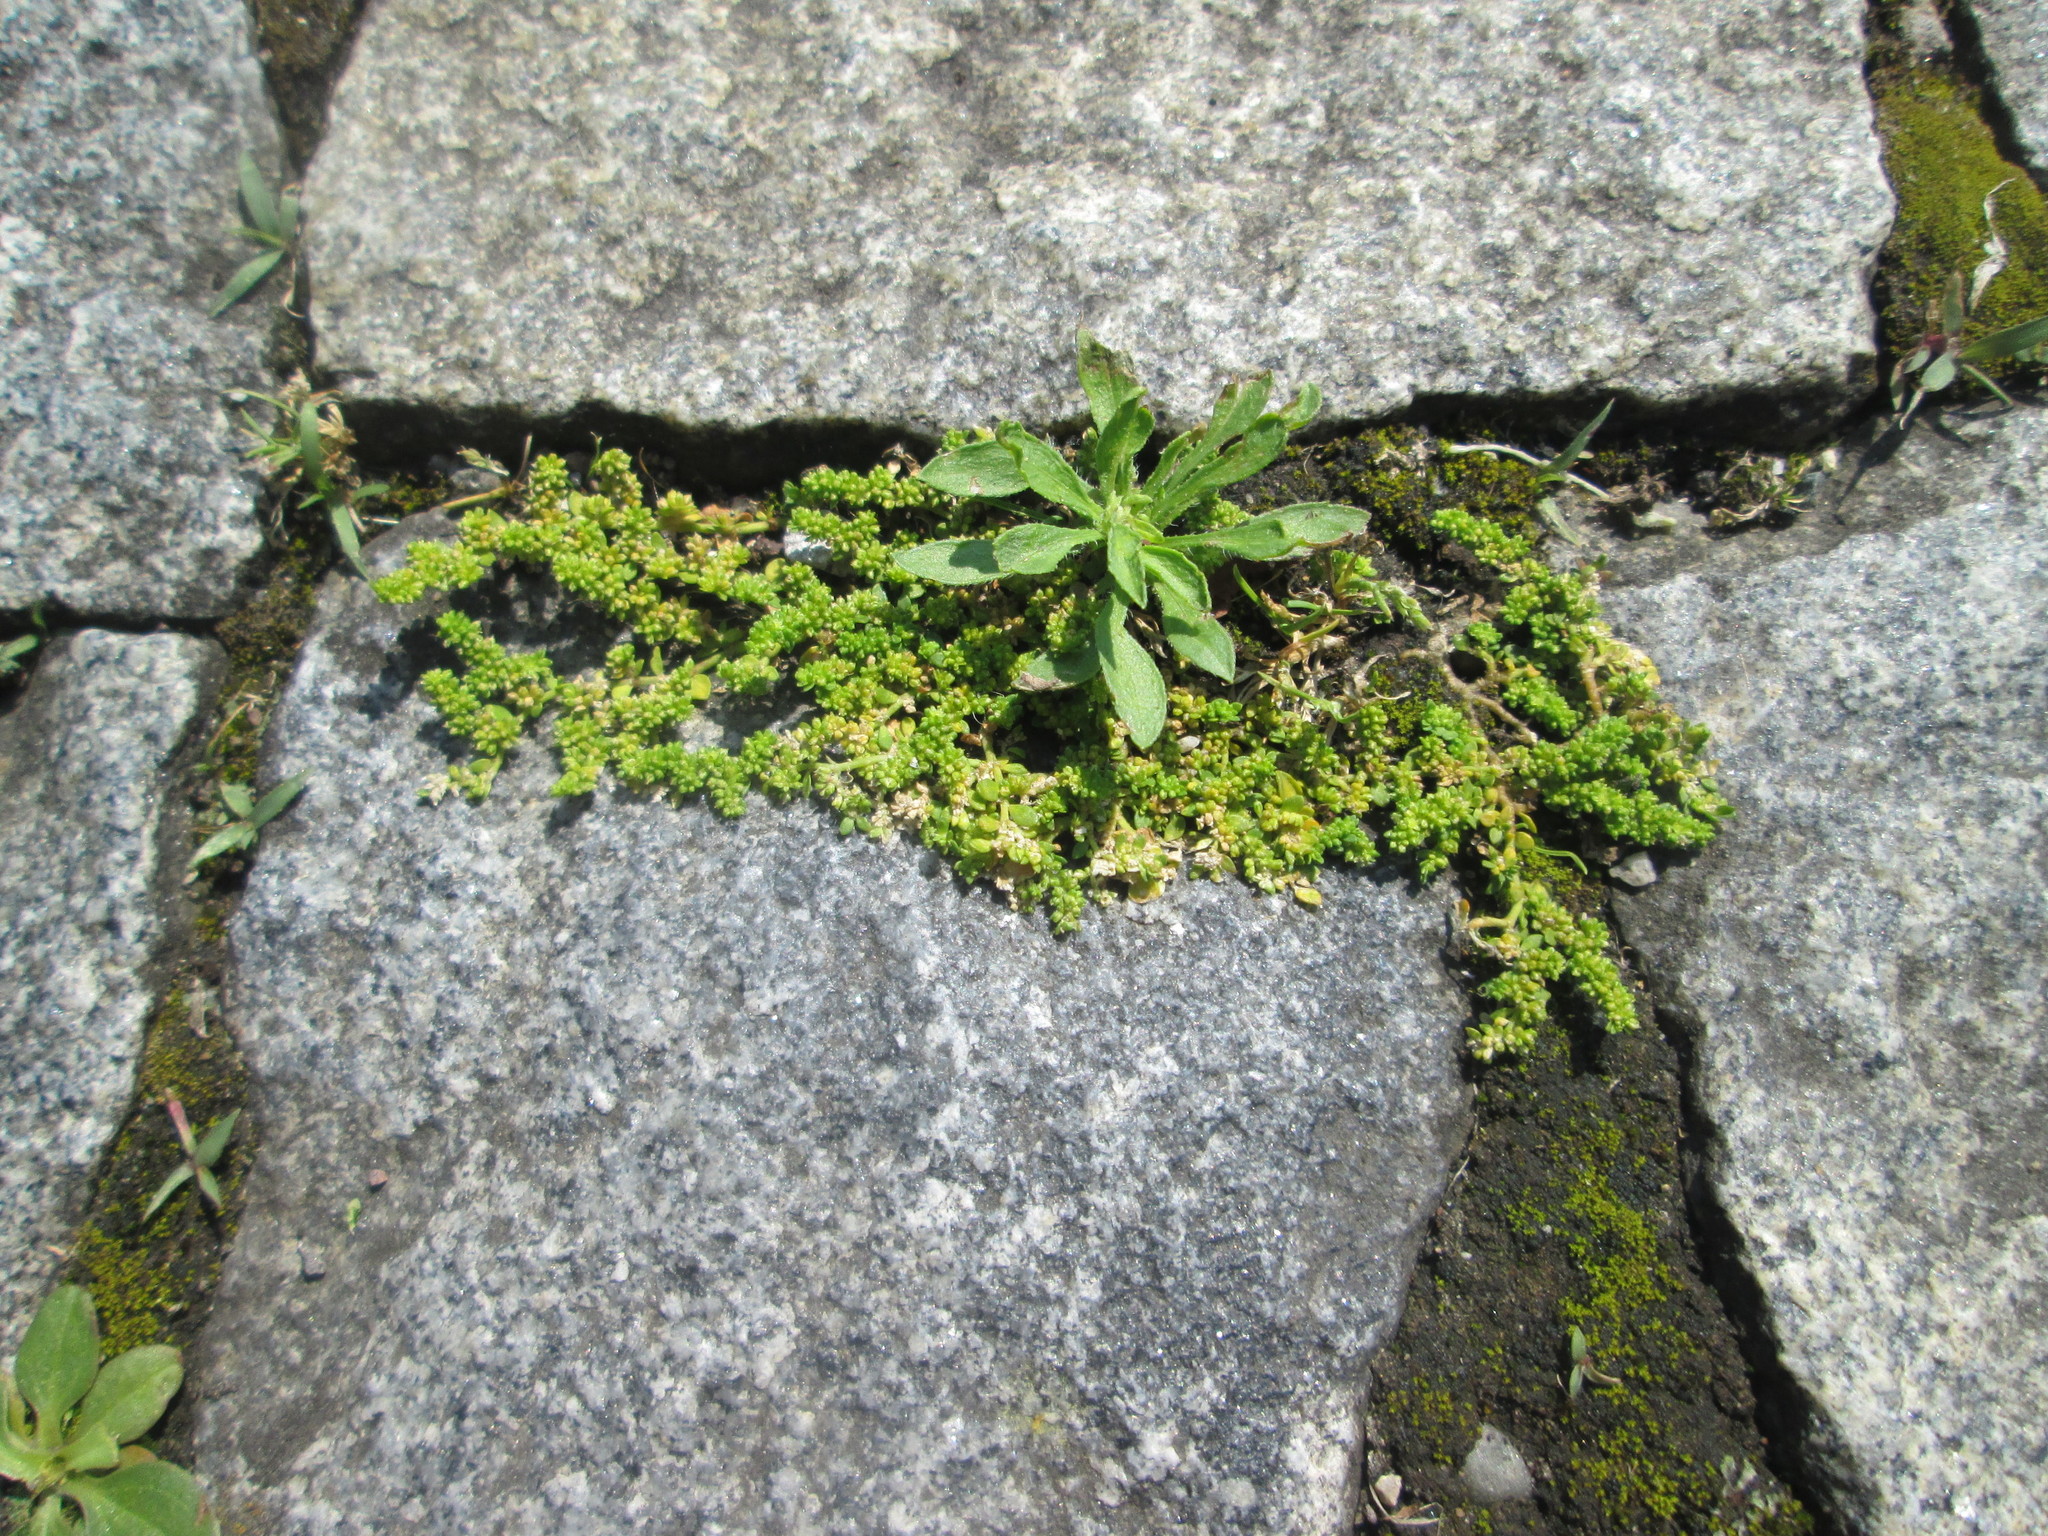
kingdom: Plantae
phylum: Tracheophyta
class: Magnoliopsida
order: Caryophyllales
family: Caryophyllaceae
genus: Herniaria
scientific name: Herniaria glabra
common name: Smooth rupturewort
